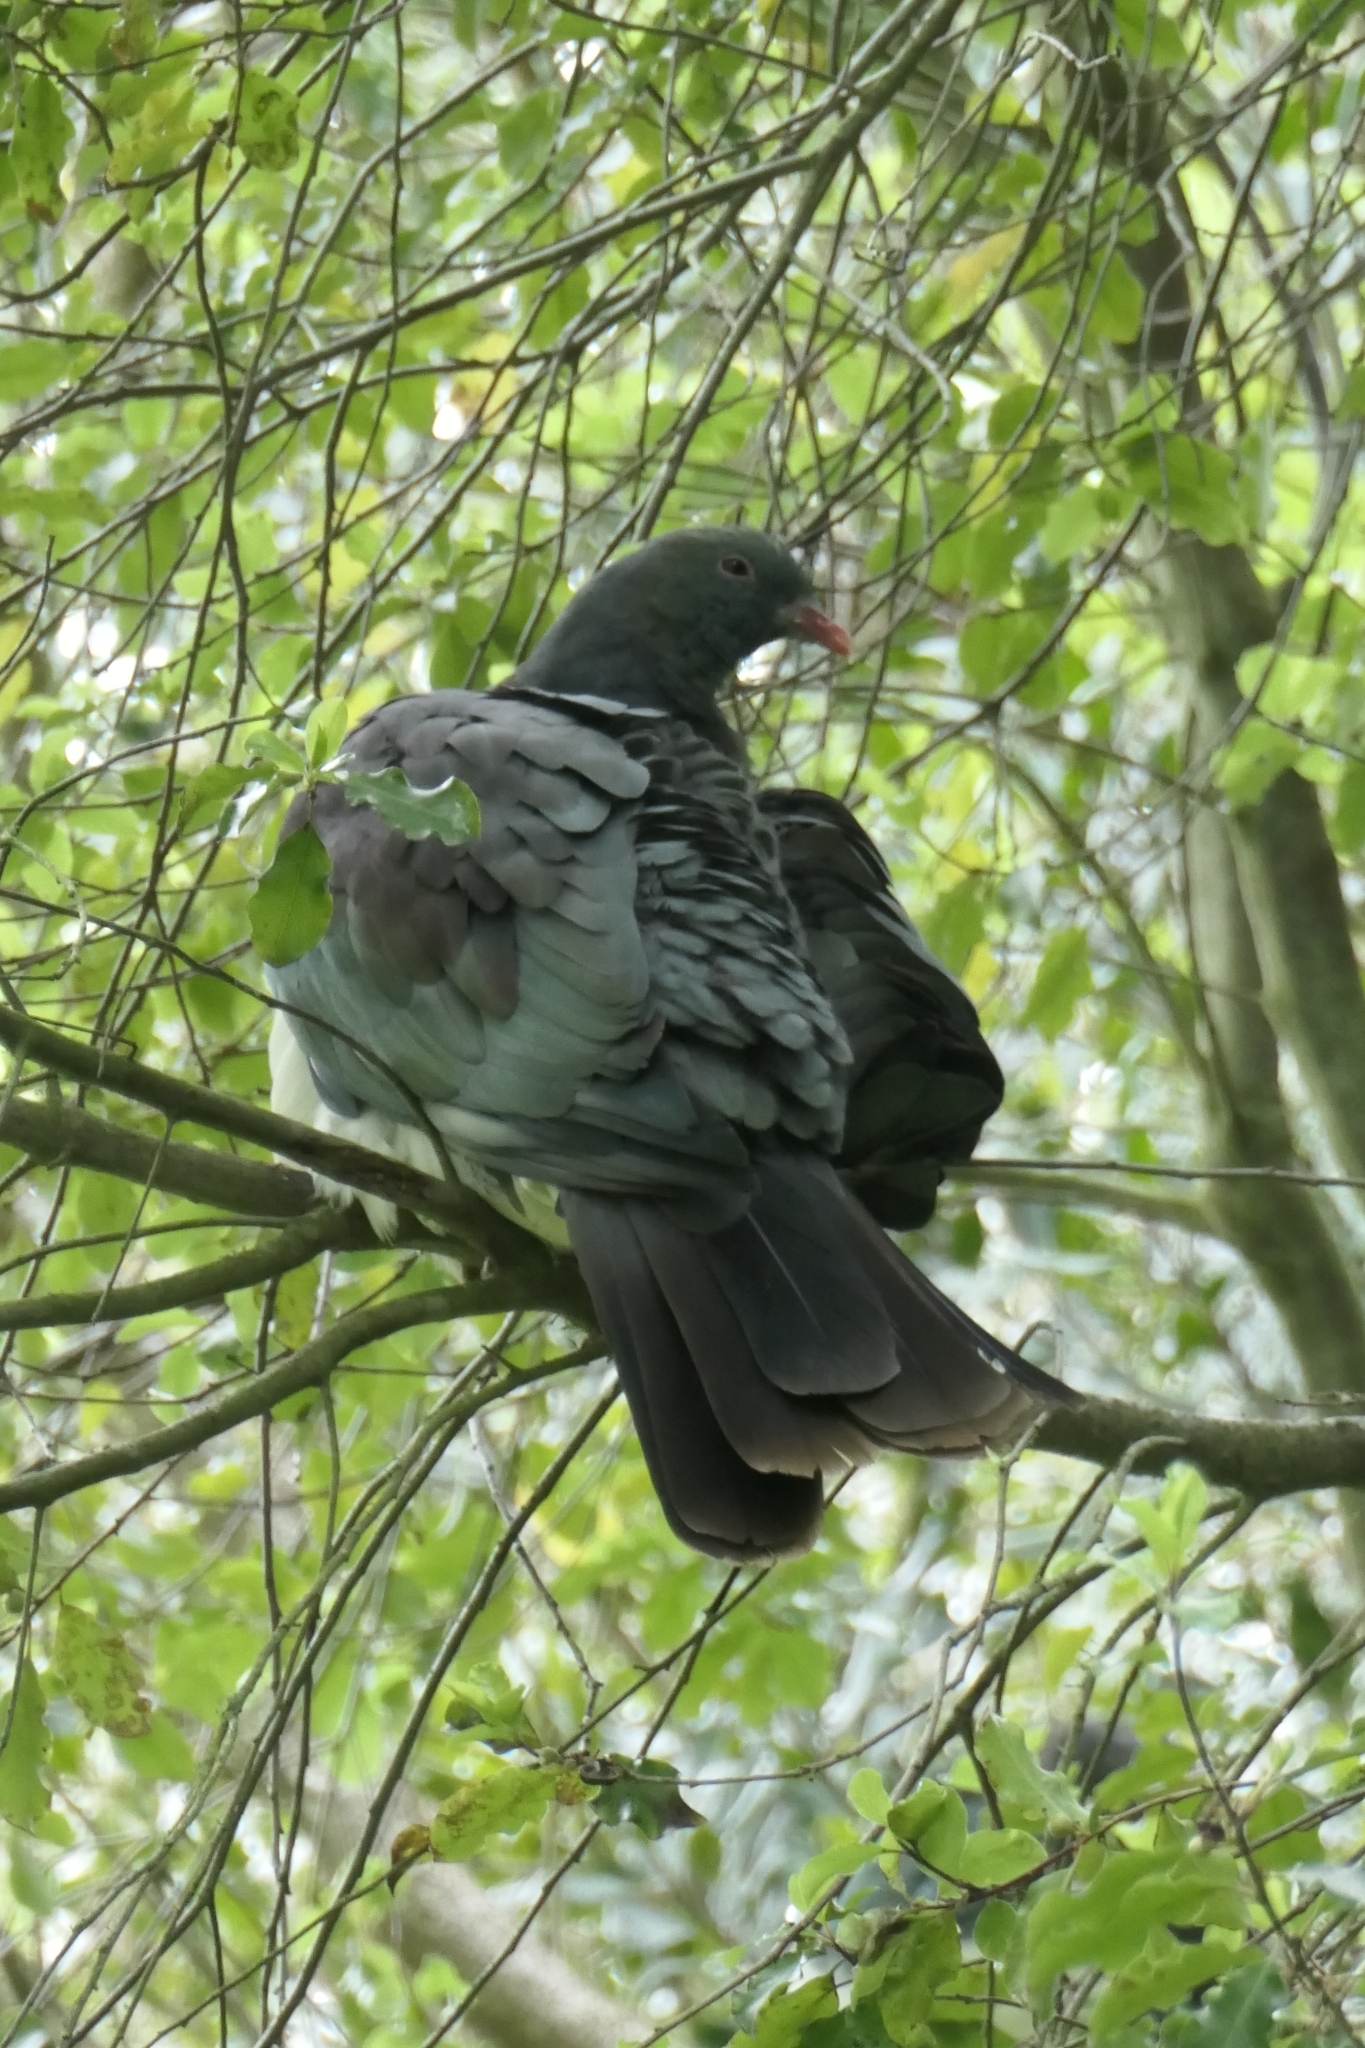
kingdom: Animalia
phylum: Chordata
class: Aves
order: Columbiformes
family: Columbidae
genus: Hemiphaga
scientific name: Hemiphaga novaeseelandiae
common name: New zealand pigeon
